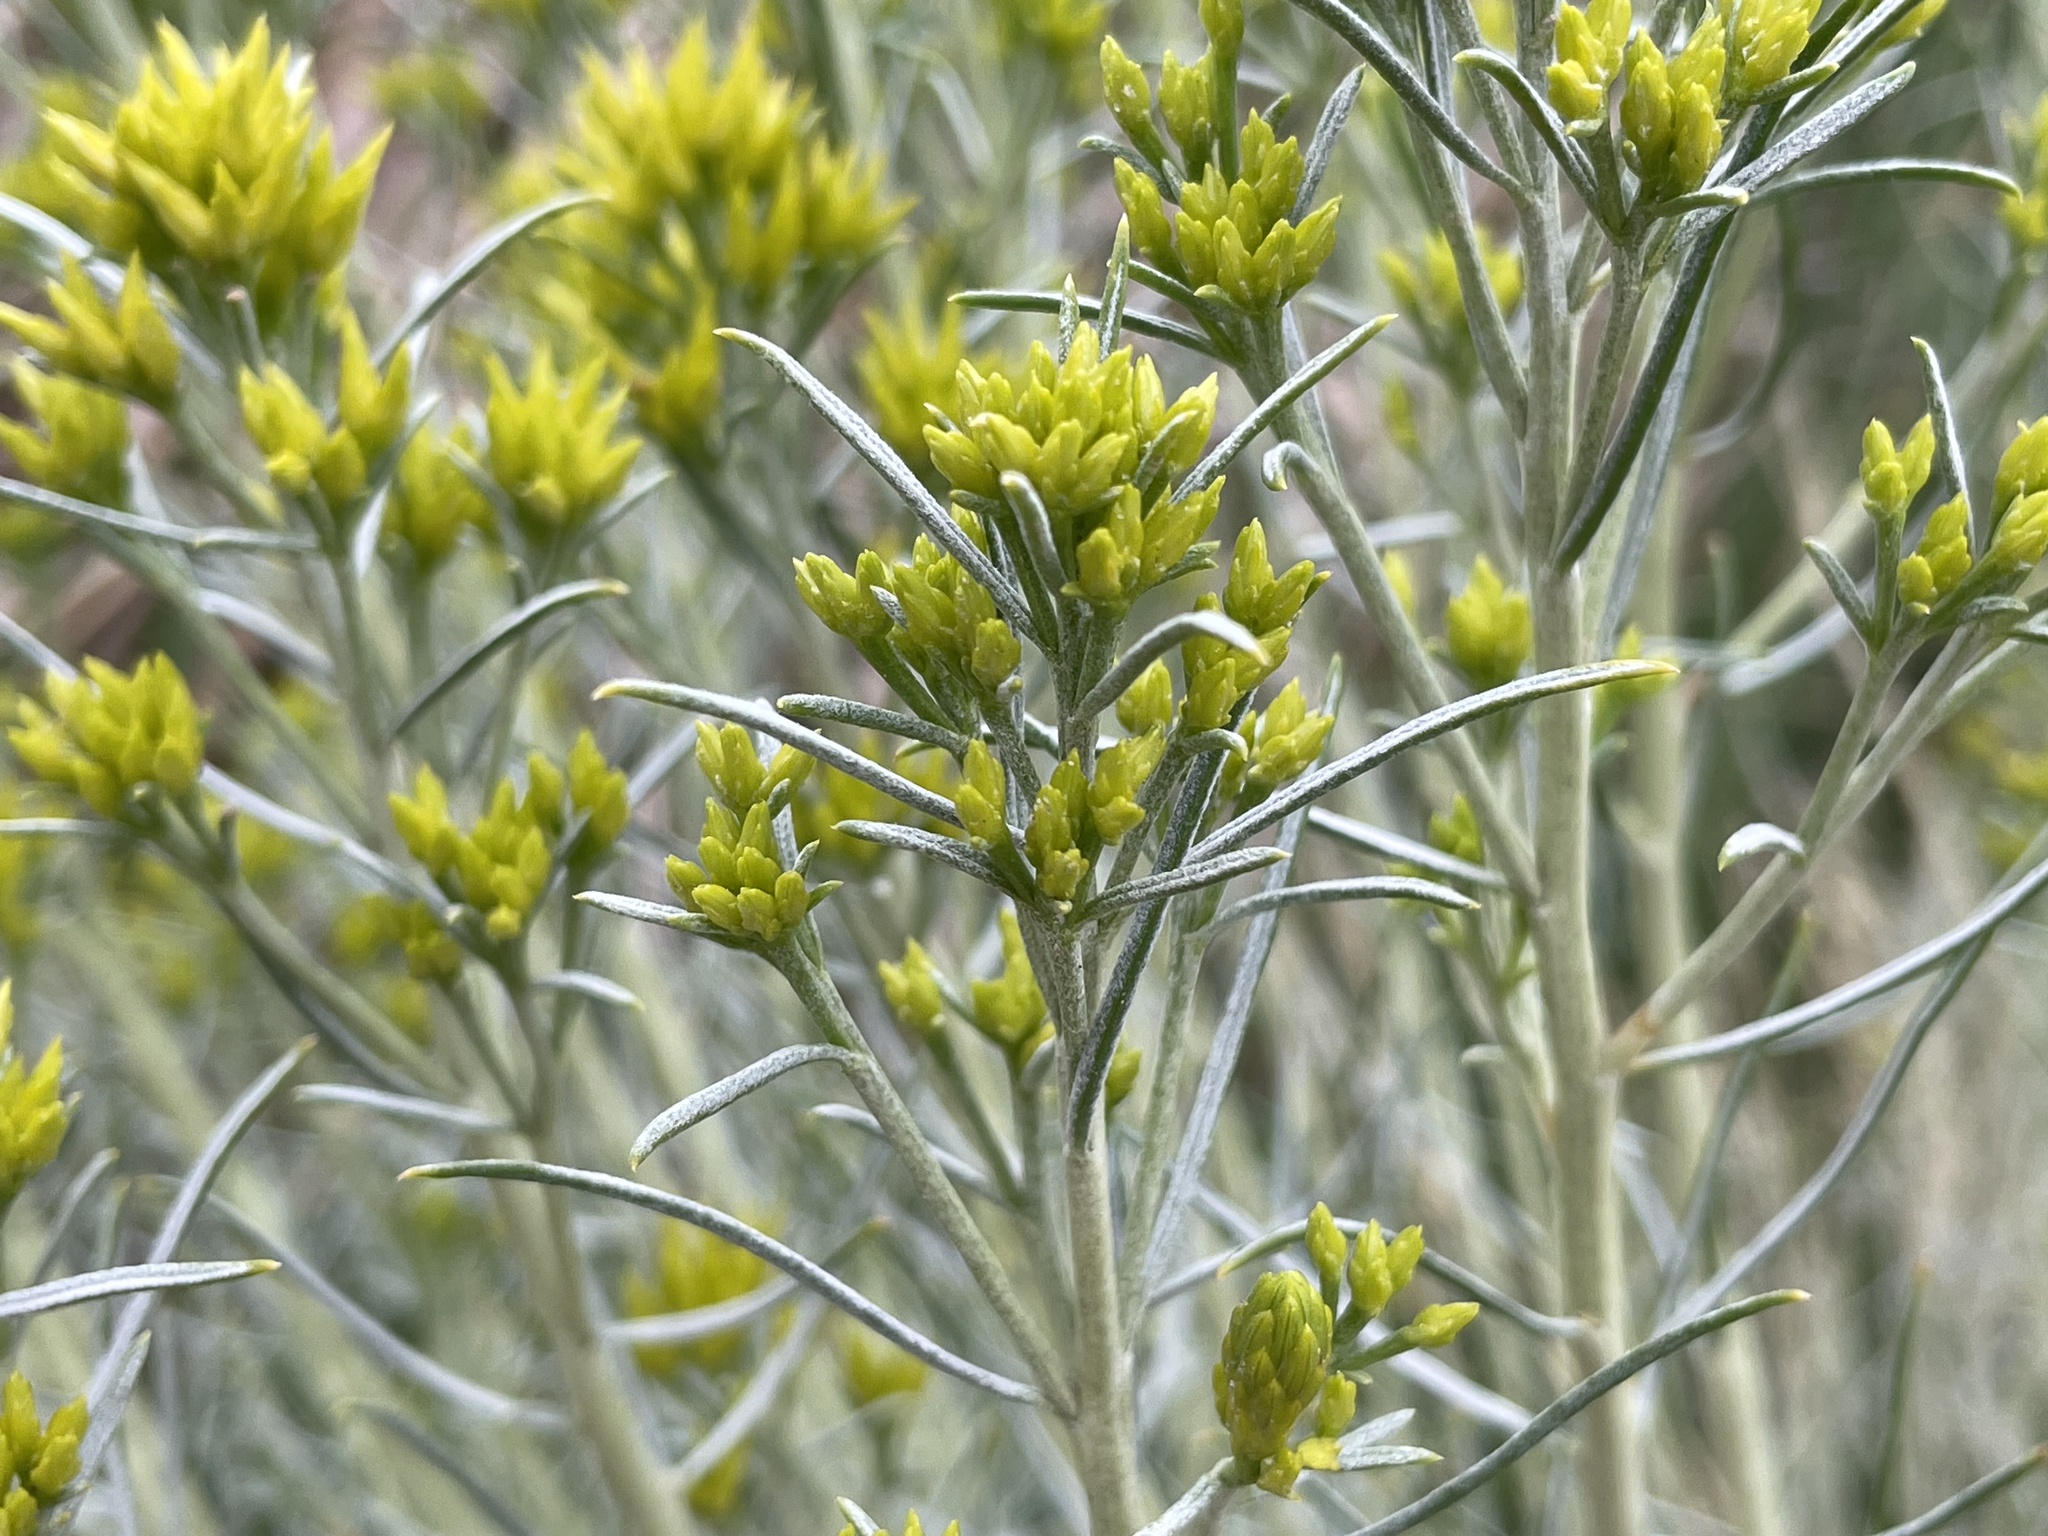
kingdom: Plantae
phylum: Tracheophyta
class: Magnoliopsida
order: Asterales
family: Asteraceae
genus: Ericameria
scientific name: Ericameria nauseosa
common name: Rubber rabbitbrush
